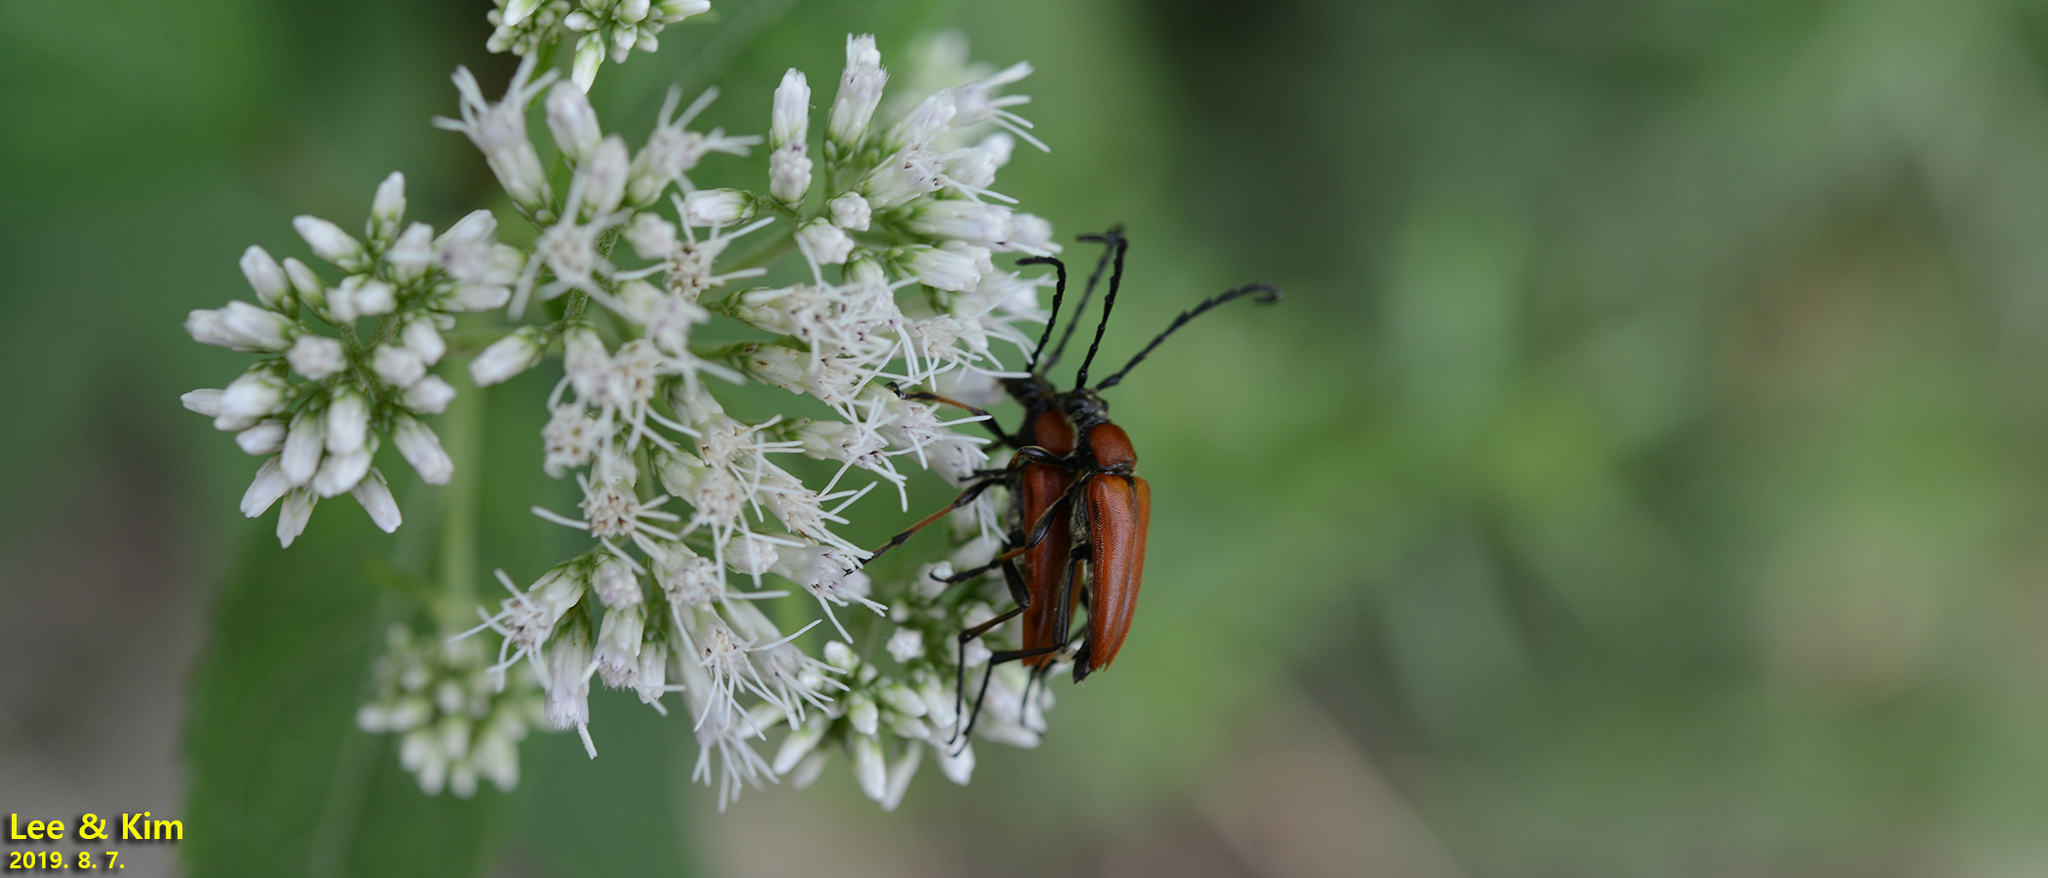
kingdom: Animalia
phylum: Arthropoda
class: Insecta
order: Coleoptera
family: Cerambycidae
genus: Stictoleptura
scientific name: Stictoleptura dichroa
